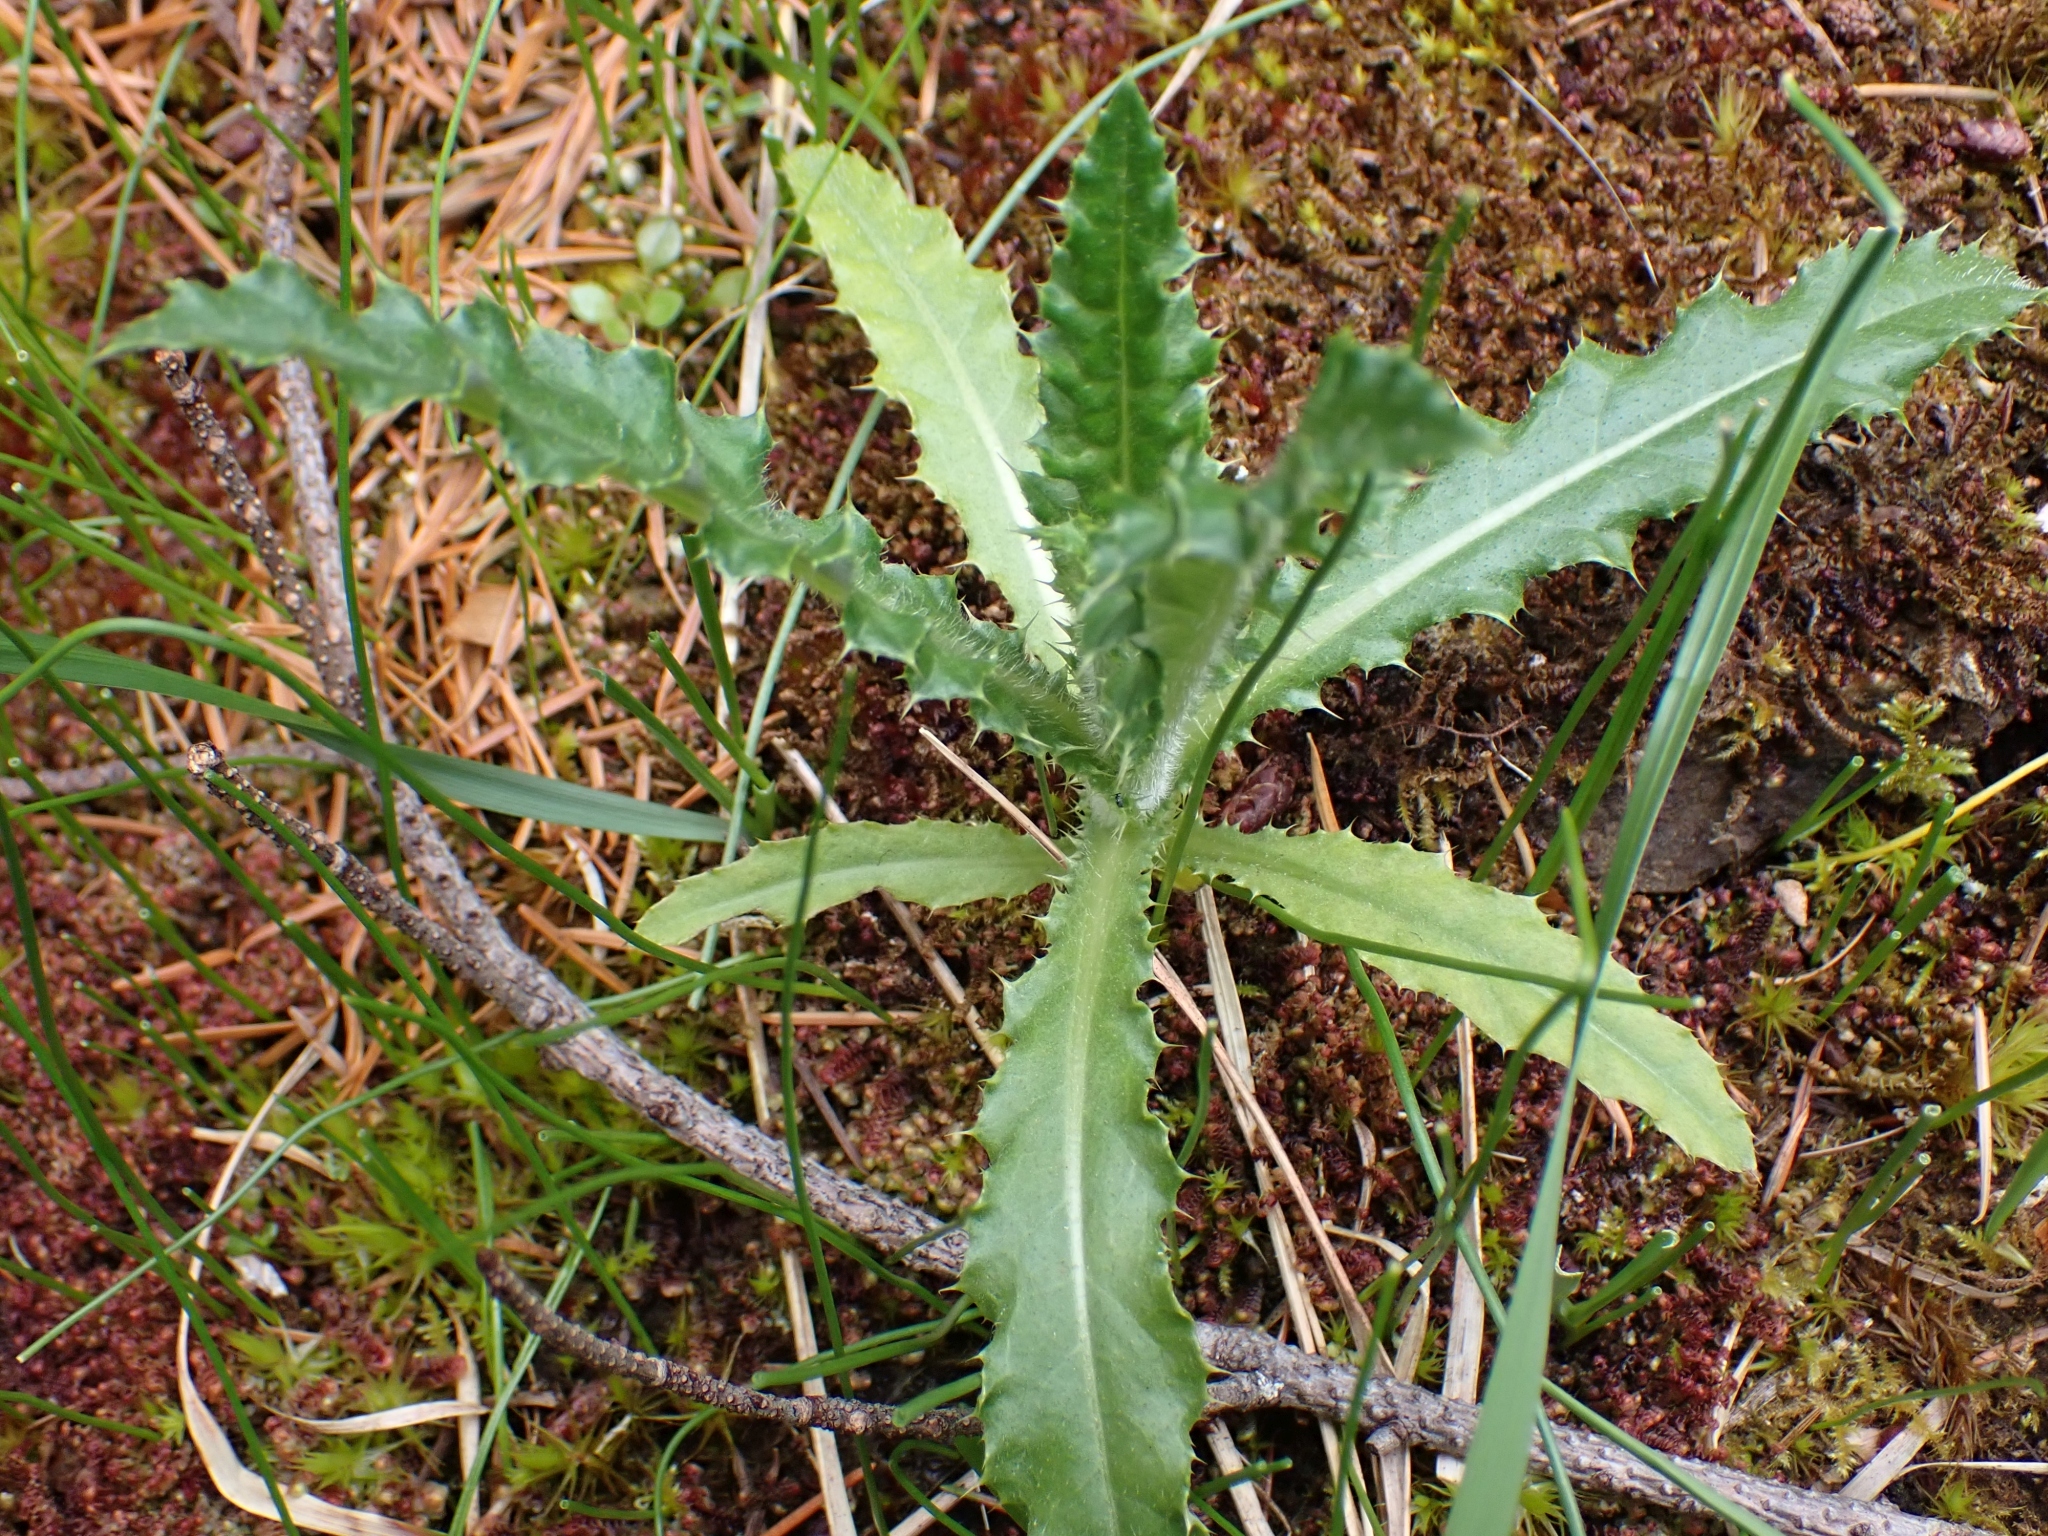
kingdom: Plantae
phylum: Tracheophyta
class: Magnoliopsida
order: Asterales
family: Asteraceae
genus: Cirsium
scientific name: Cirsium arvense
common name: Creeping thistle
